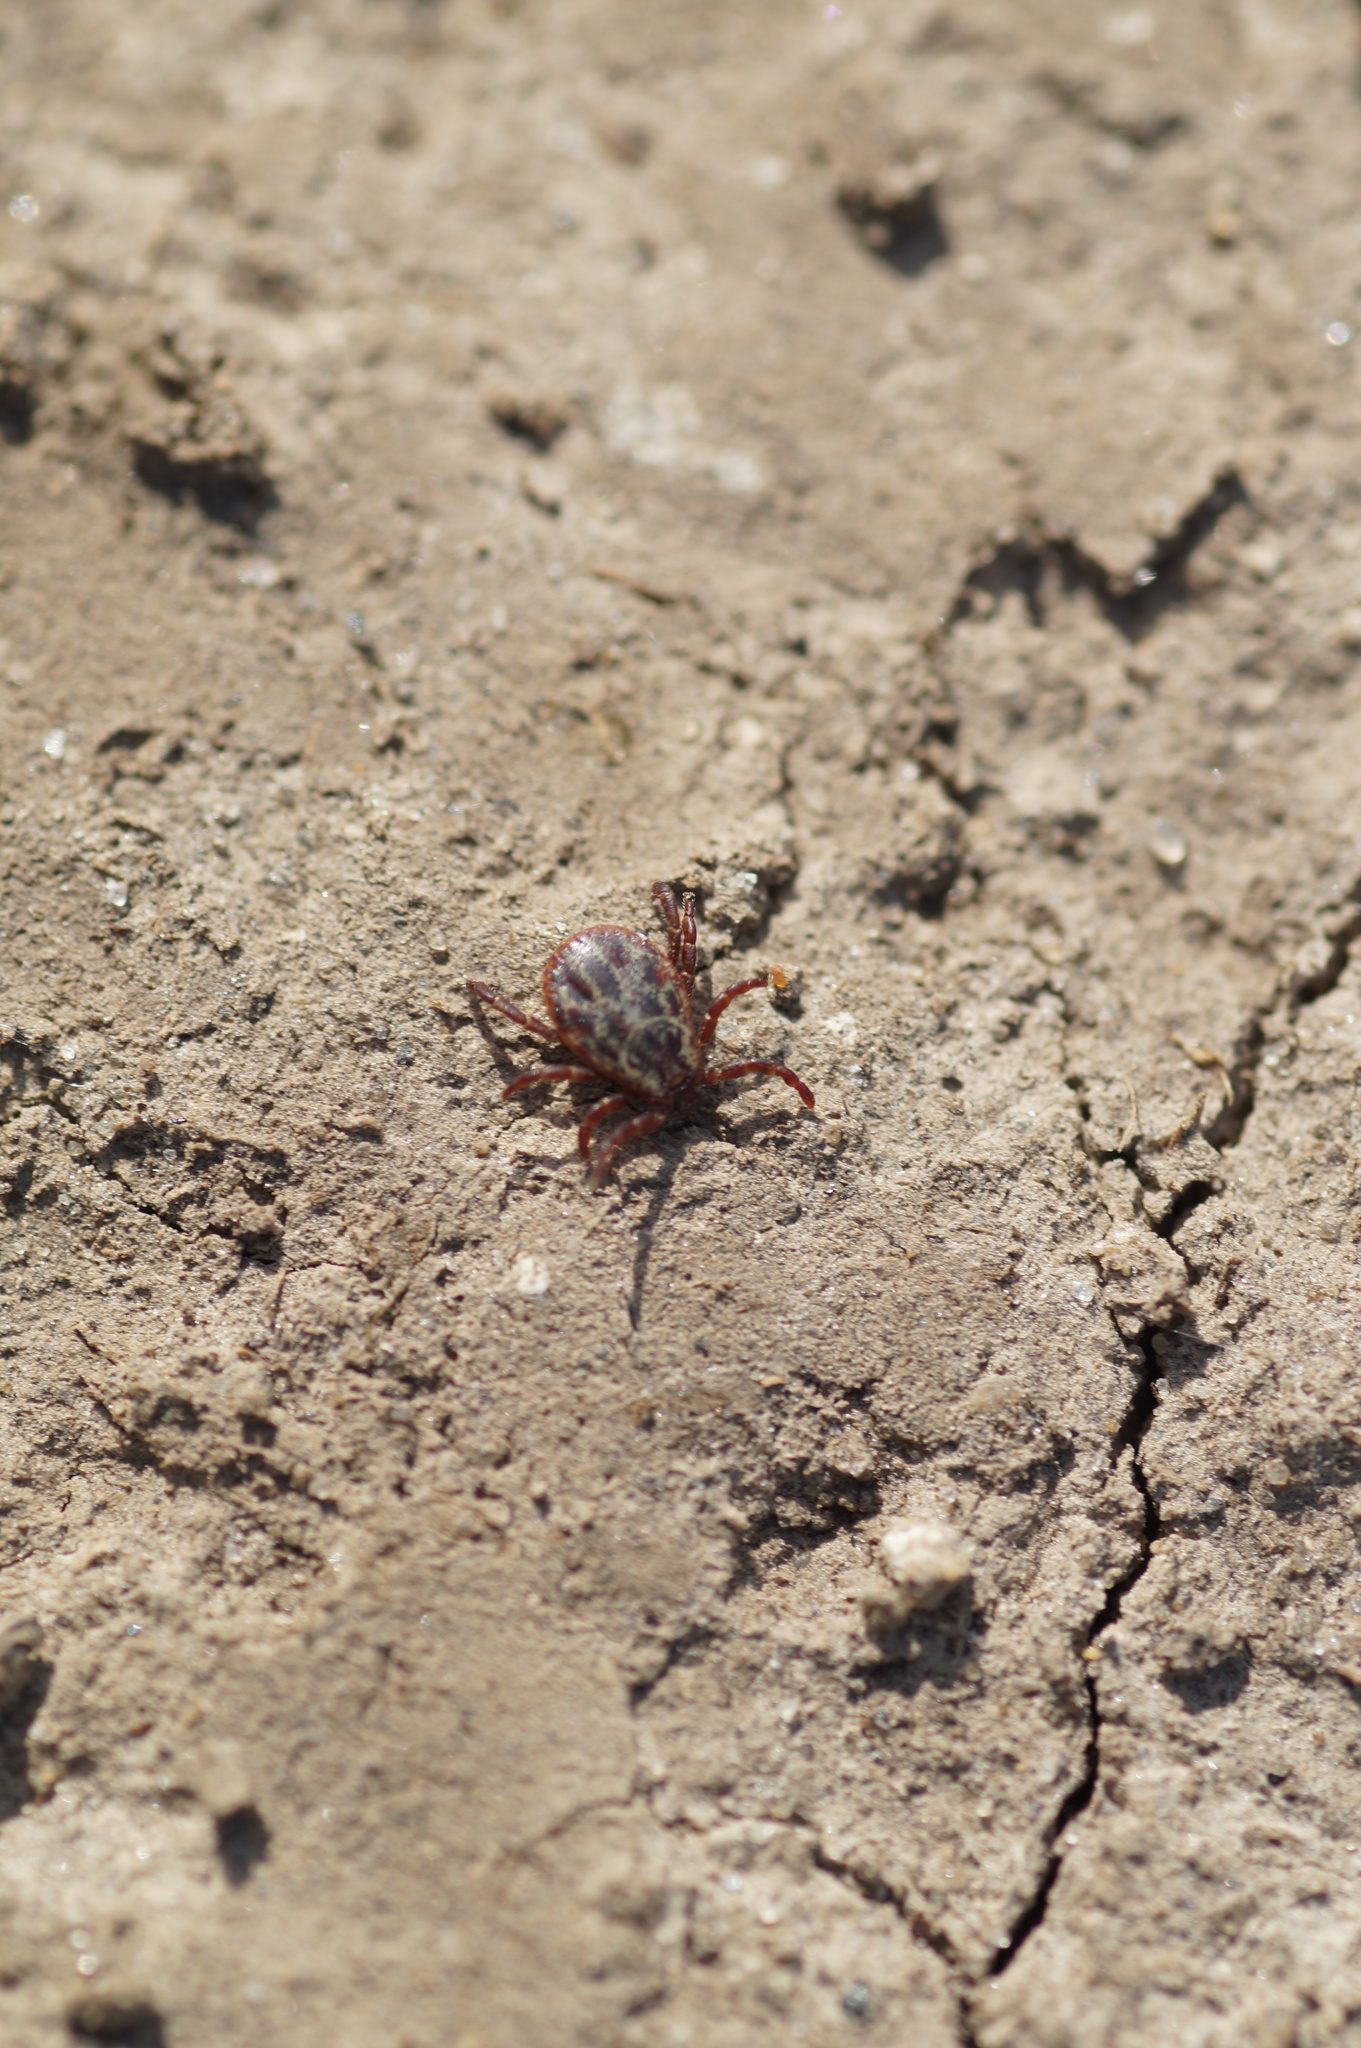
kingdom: Animalia
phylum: Arthropoda
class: Arachnida
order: Ixodida
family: Ixodidae
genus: Dermacentor
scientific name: Dermacentor reticulatus
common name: Ornate cow tick
